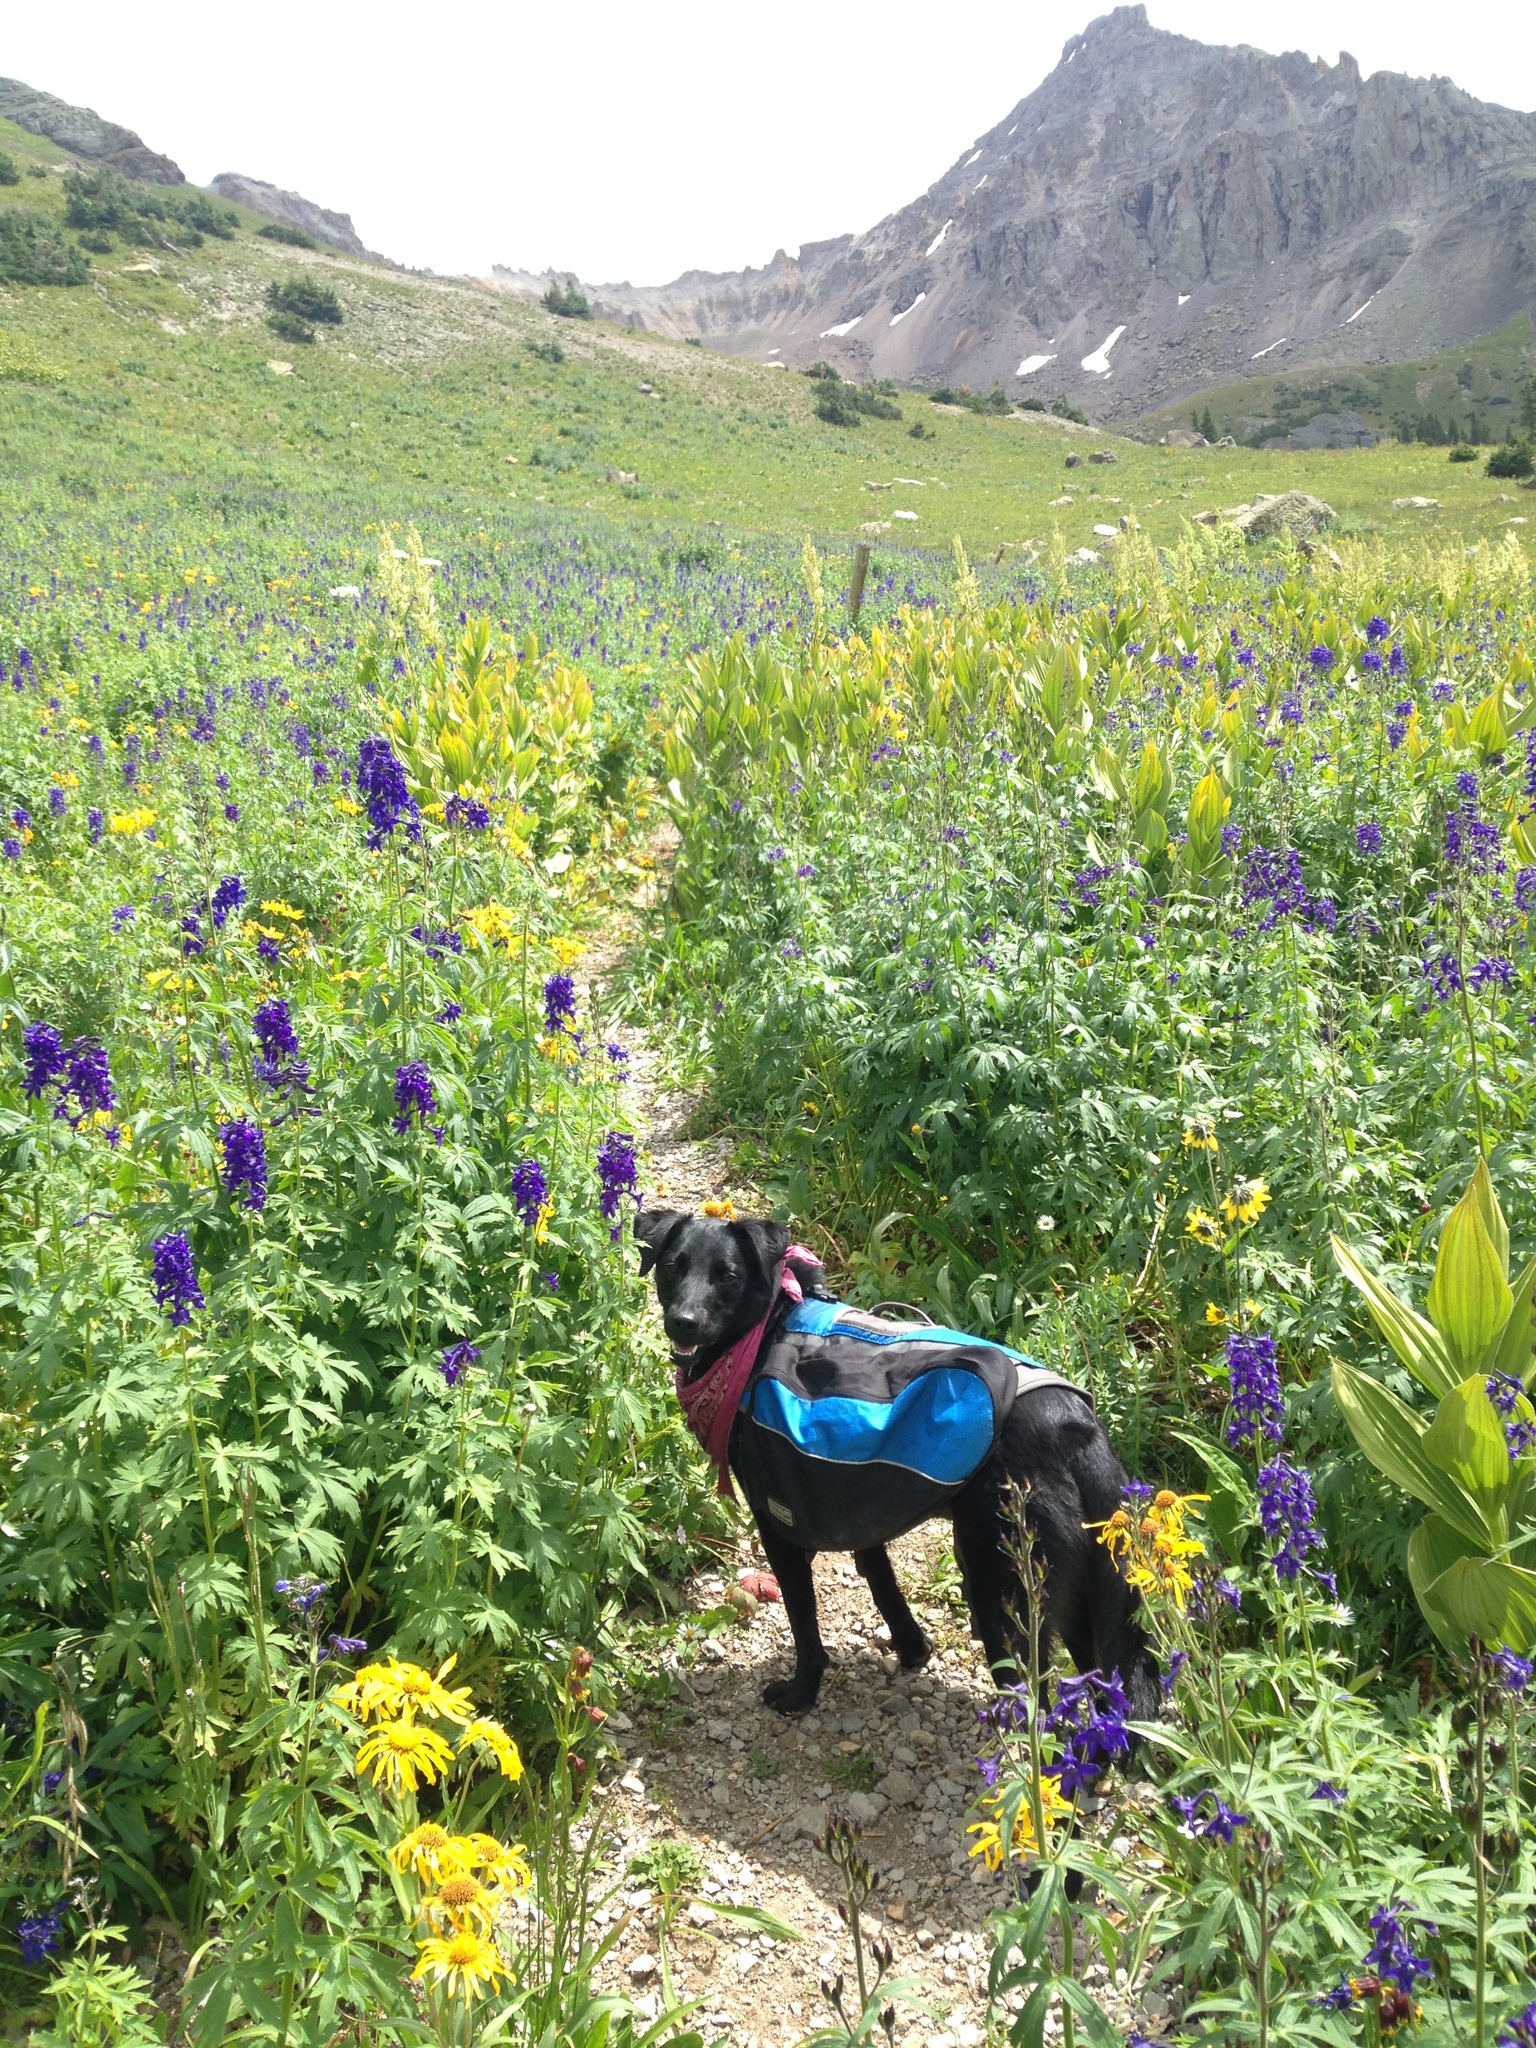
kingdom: Plantae
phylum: Tracheophyta
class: Magnoliopsida
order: Ranunculales
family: Ranunculaceae
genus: Delphinium
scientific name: Delphinium barbeyi
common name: Subalpine larkspur
